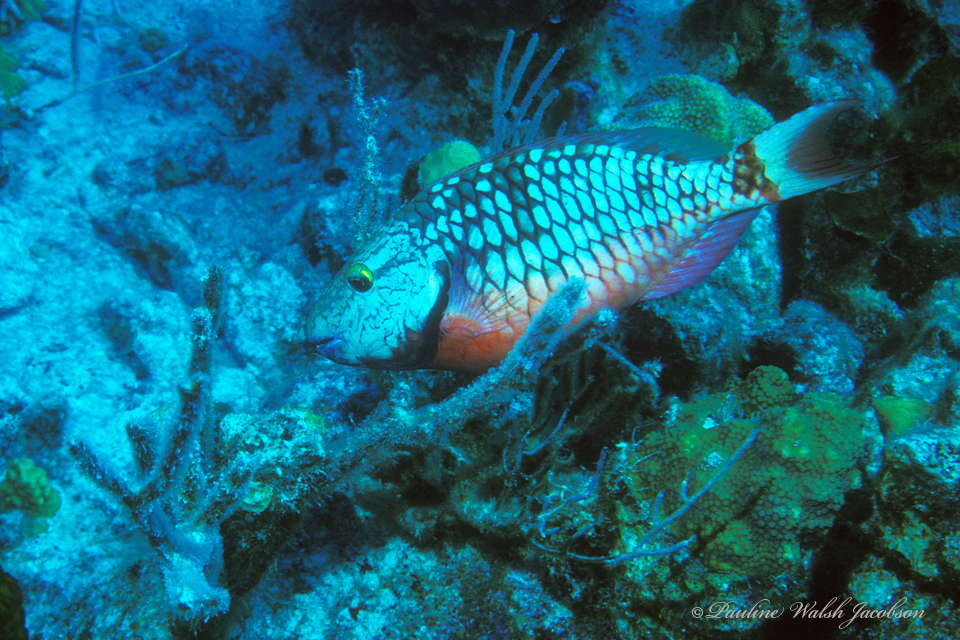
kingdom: Animalia
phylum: Chordata
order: Perciformes
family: Scaridae
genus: Sparisoma
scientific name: Sparisoma viride
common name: Stoplight parrotfish
